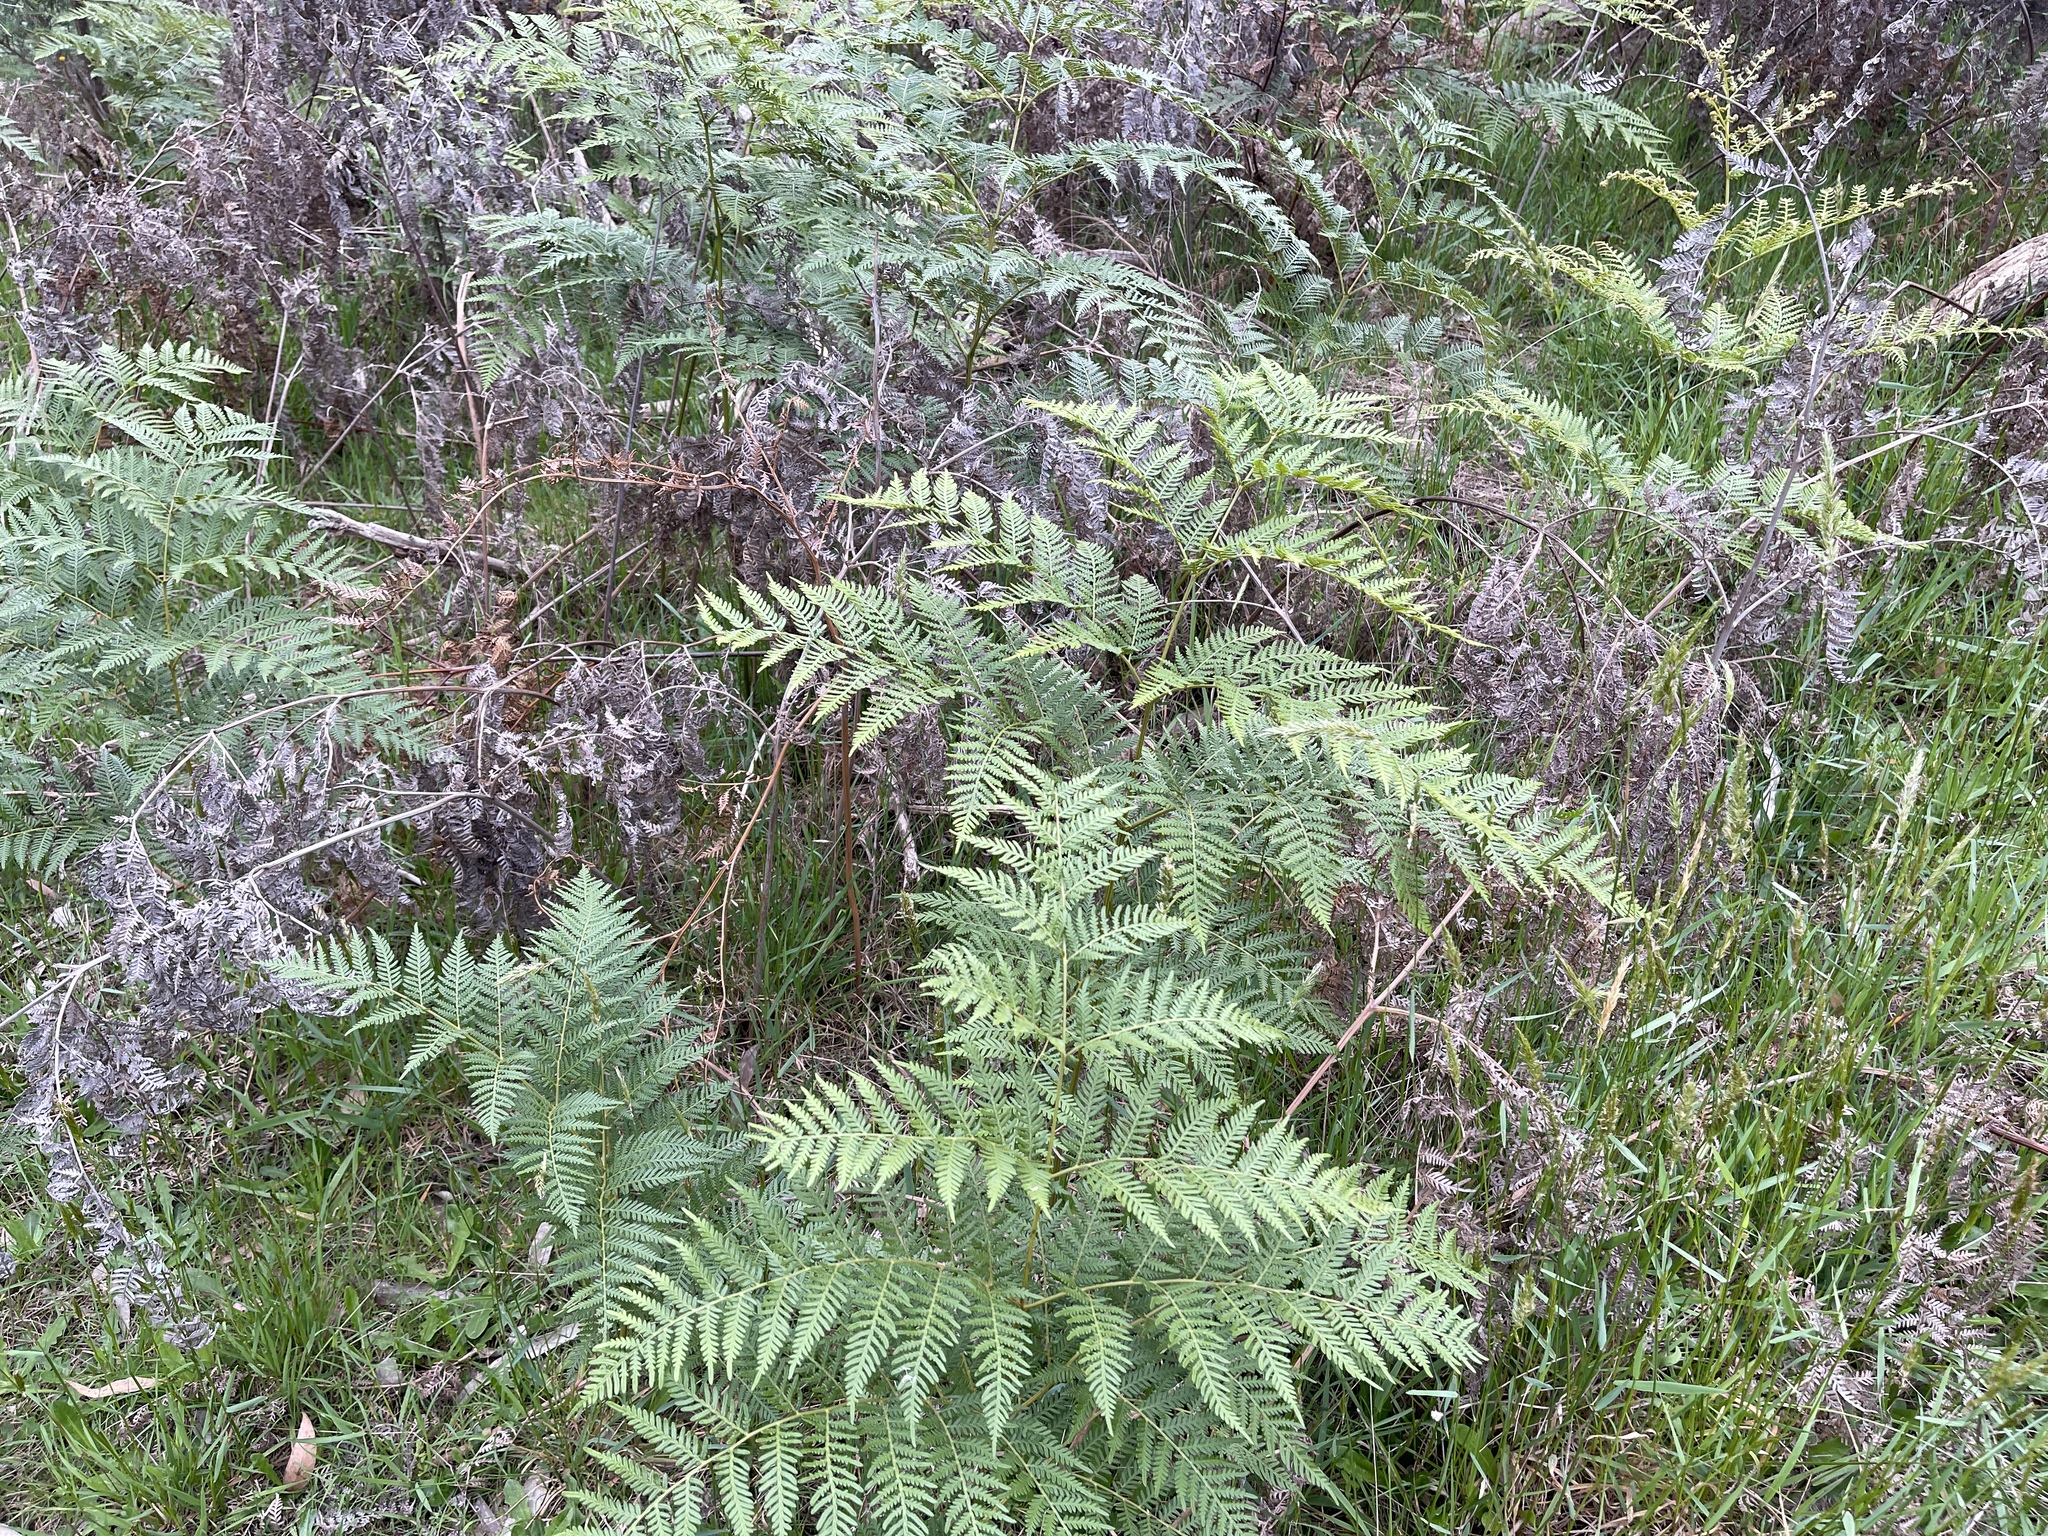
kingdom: Plantae
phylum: Tracheophyta
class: Polypodiopsida
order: Polypodiales
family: Dennstaedtiaceae
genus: Pteridium
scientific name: Pteridium esculentum
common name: Bracken fern
